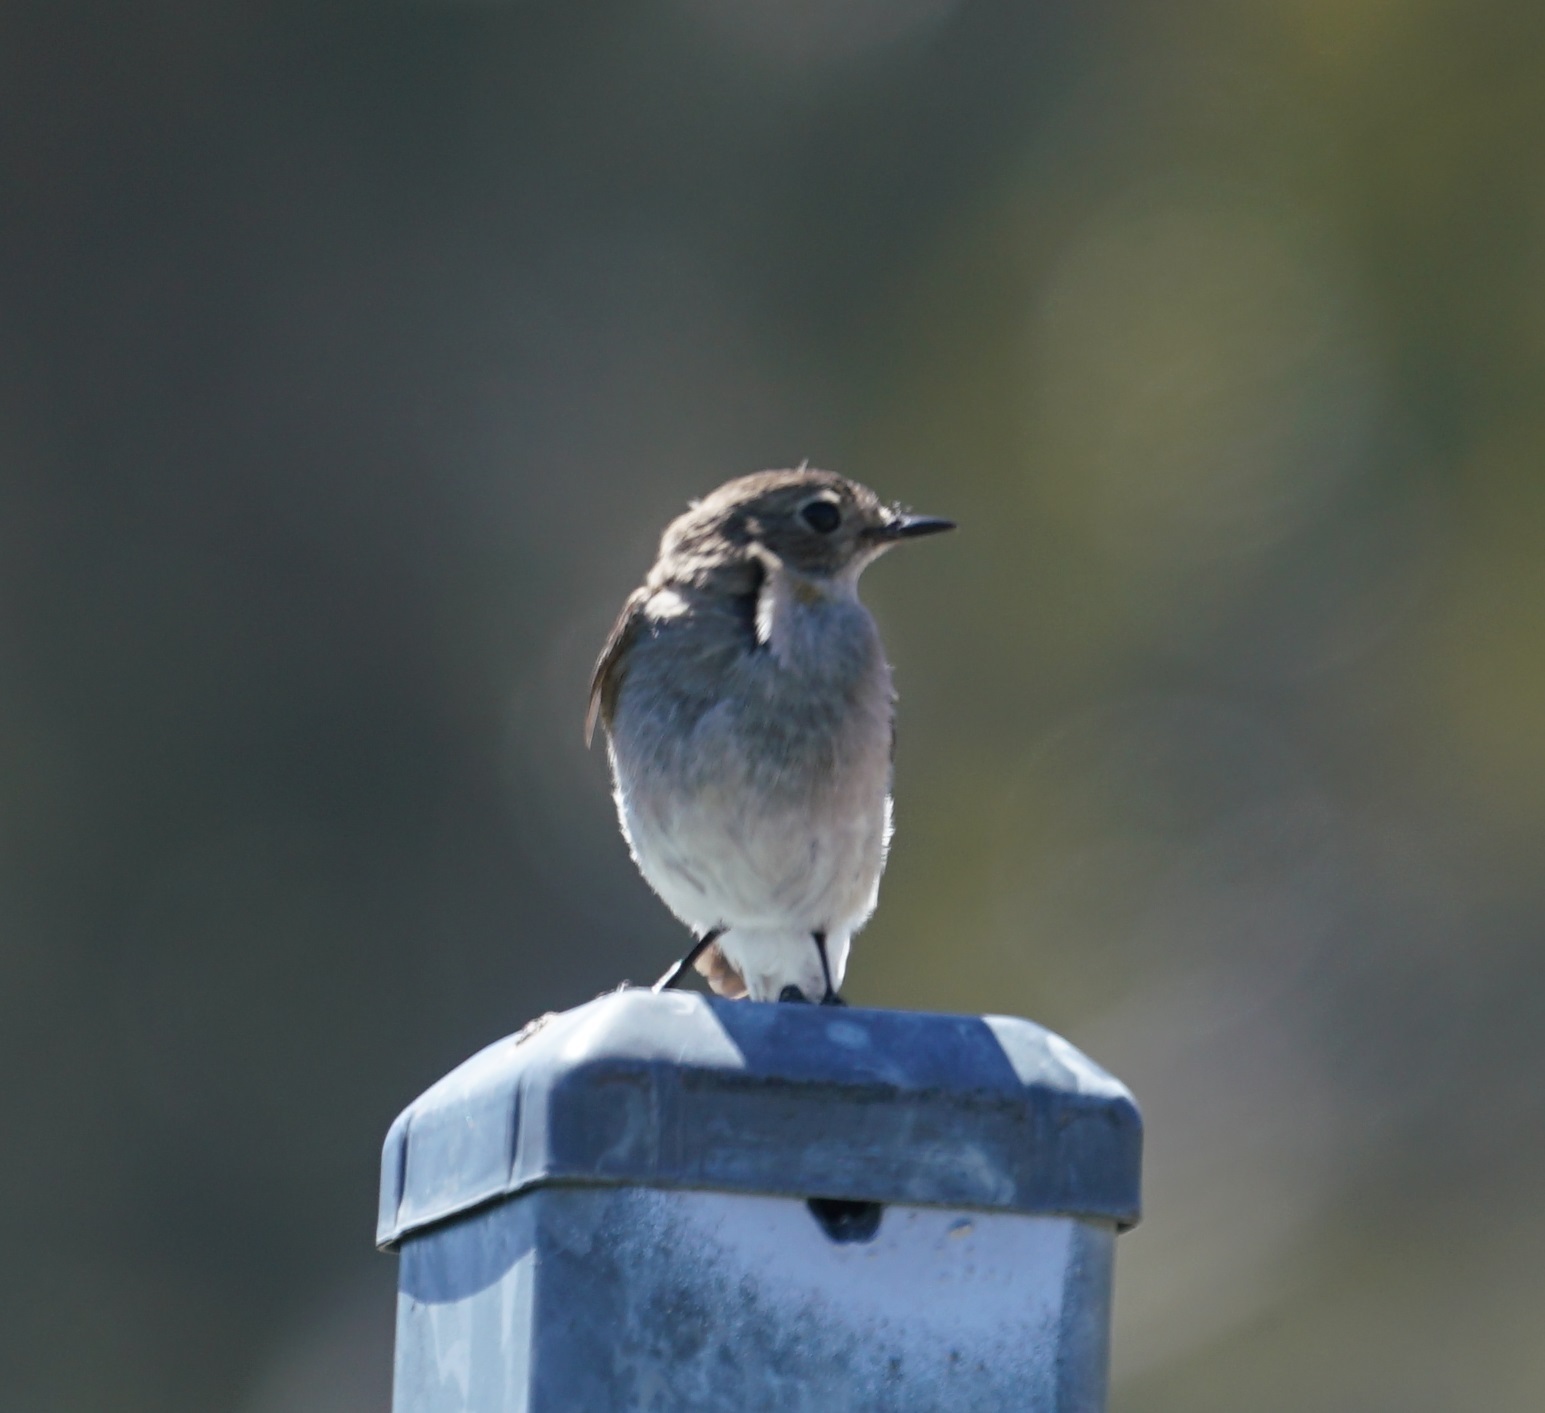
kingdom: Animalia
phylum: Chordata
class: Aves
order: Passeriformes
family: Petroicidae
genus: Petroica
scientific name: Petroica phoenicea
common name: Flame robin
